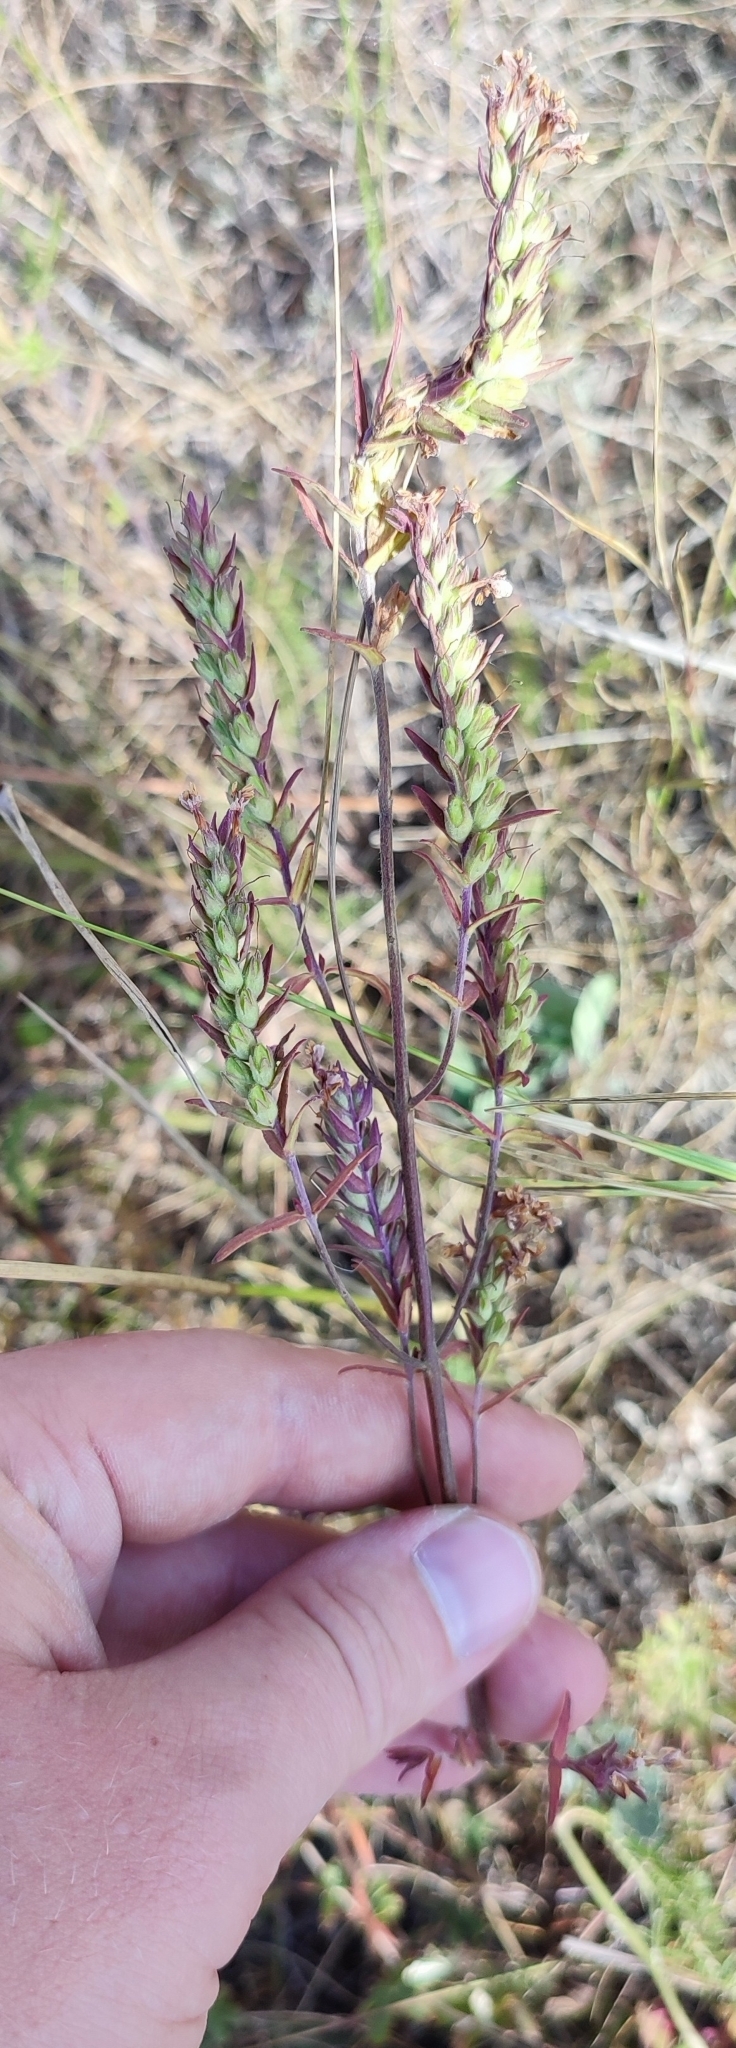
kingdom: Plantae
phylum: Tracheophyta
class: Magnoliopsida
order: Lamiales
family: Orobanchaceae
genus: Odontites
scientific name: Odontites vulgaris
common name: Broomrape
